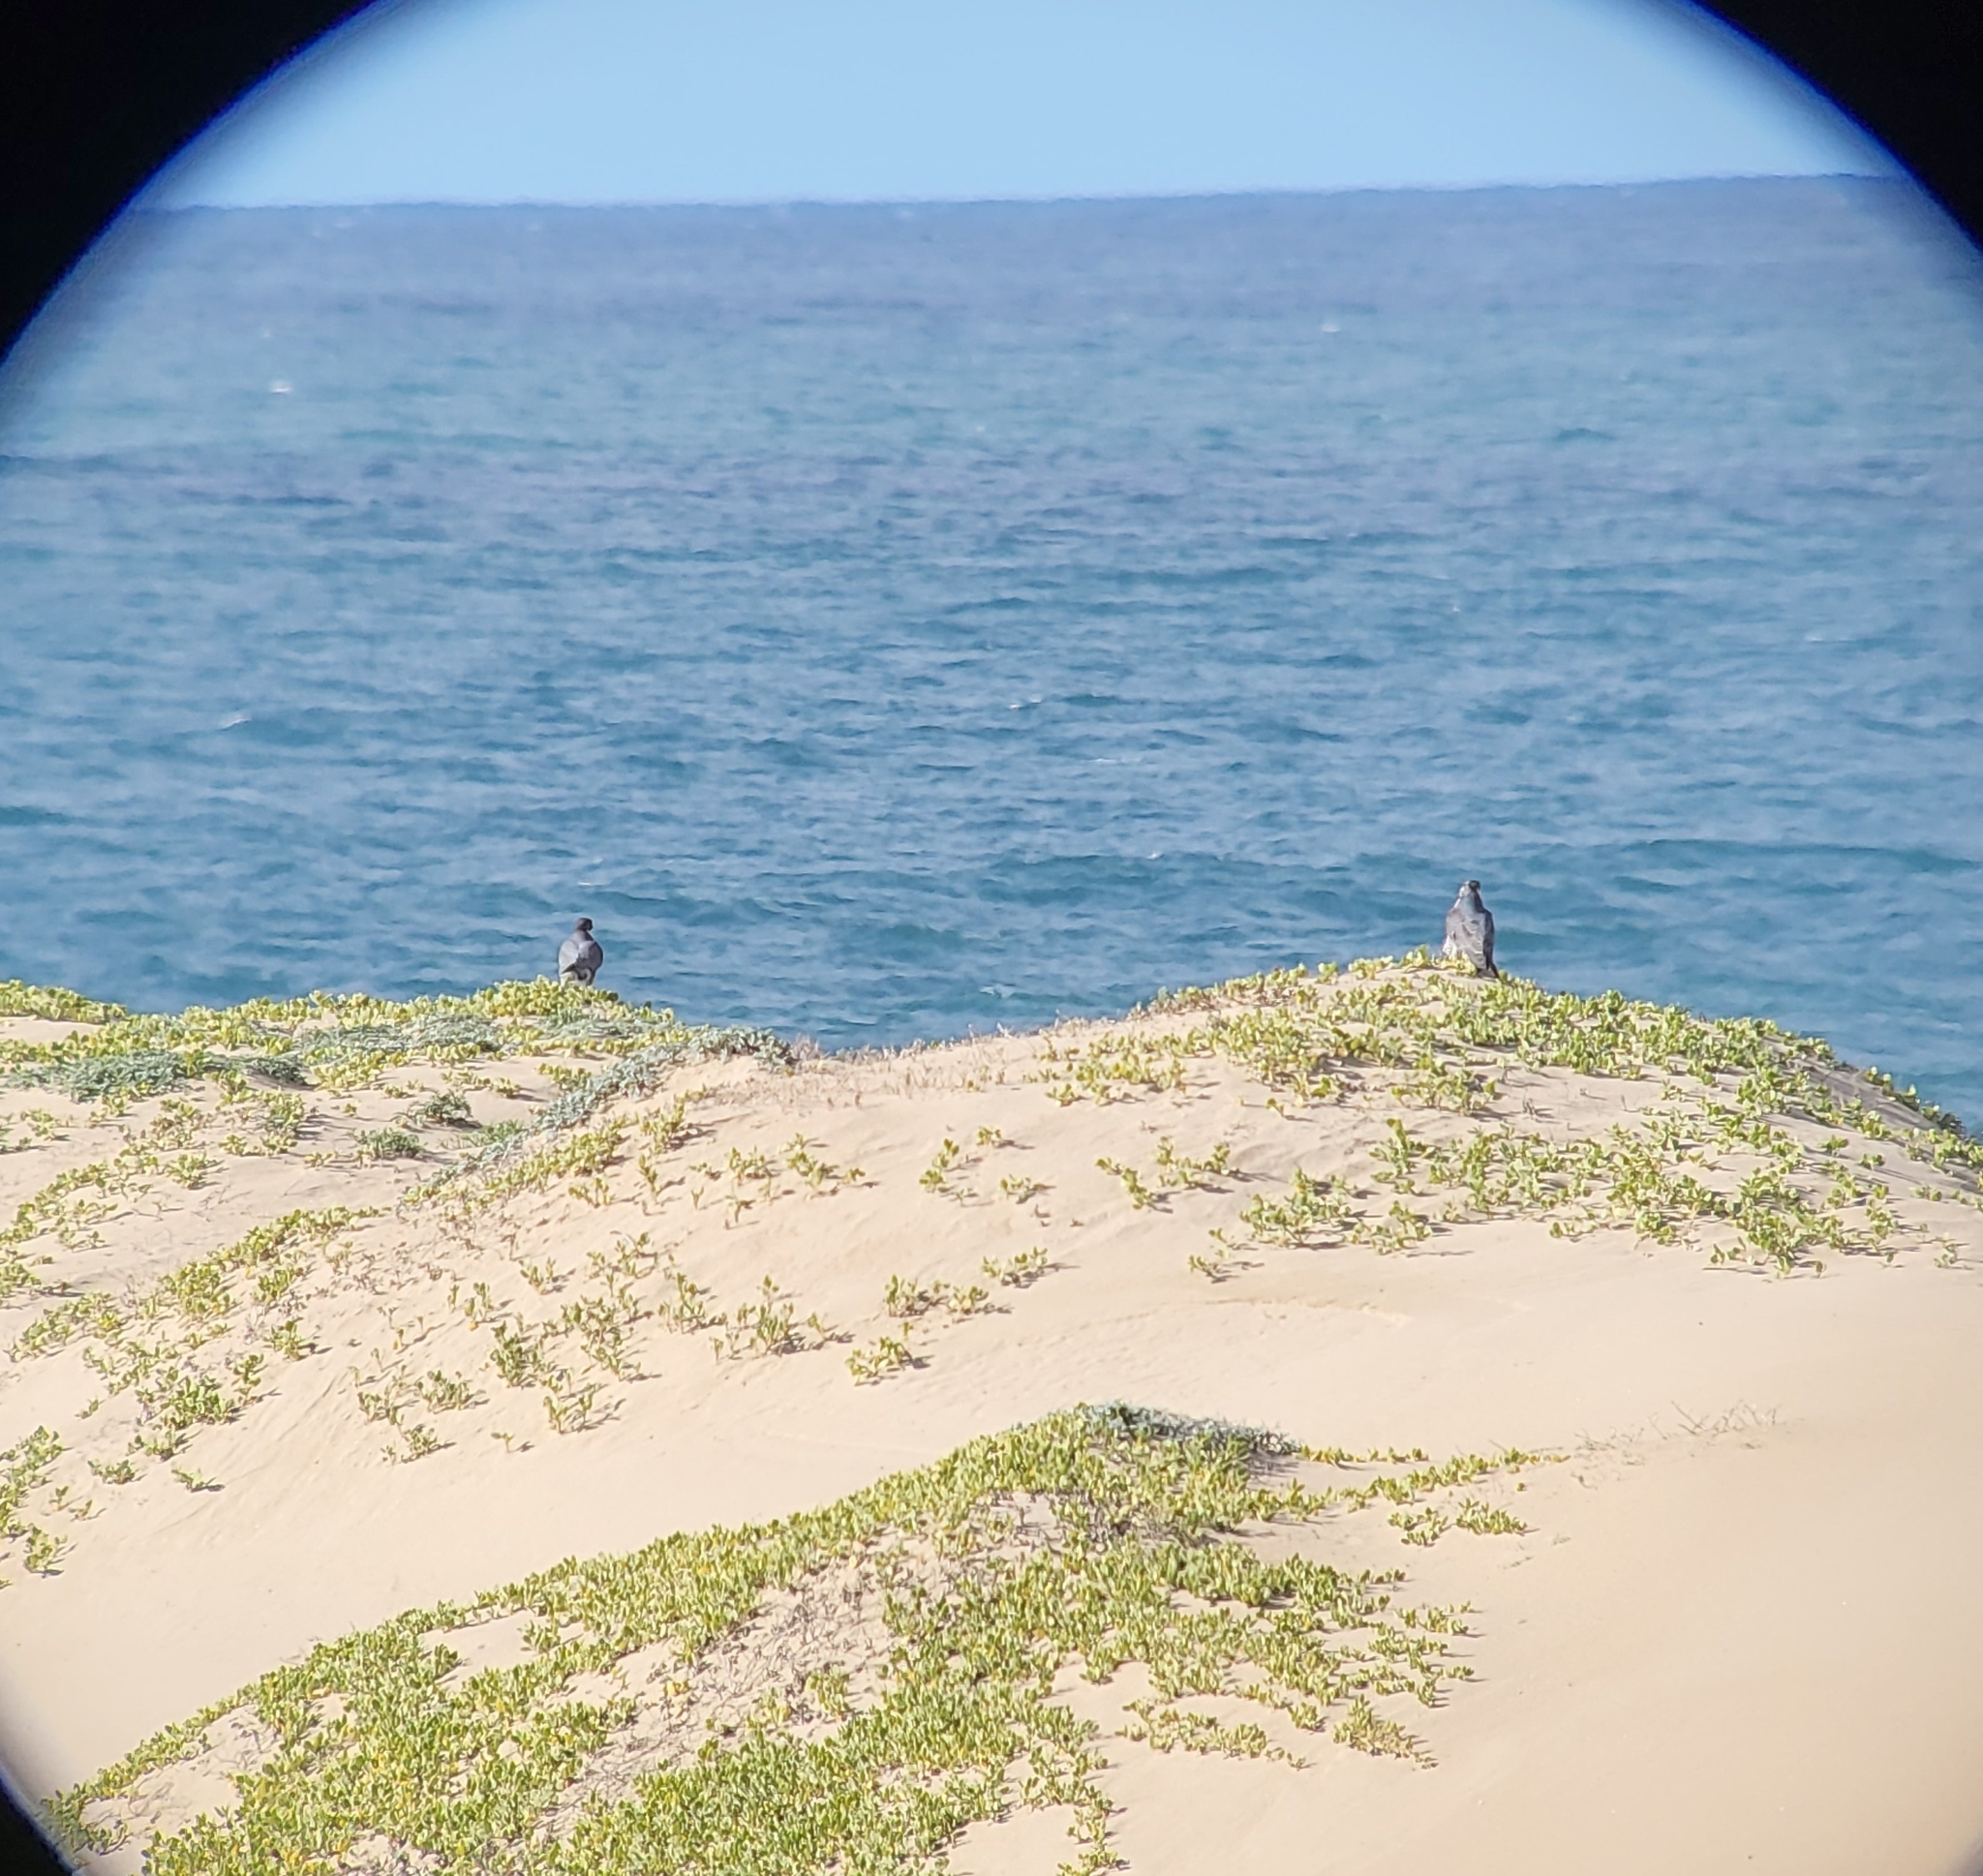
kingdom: Animalia
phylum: Chordata
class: Aves
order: Falconiformes
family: Falconidae
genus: Falco
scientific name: Falco peregrinus
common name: Peregrine falcon
